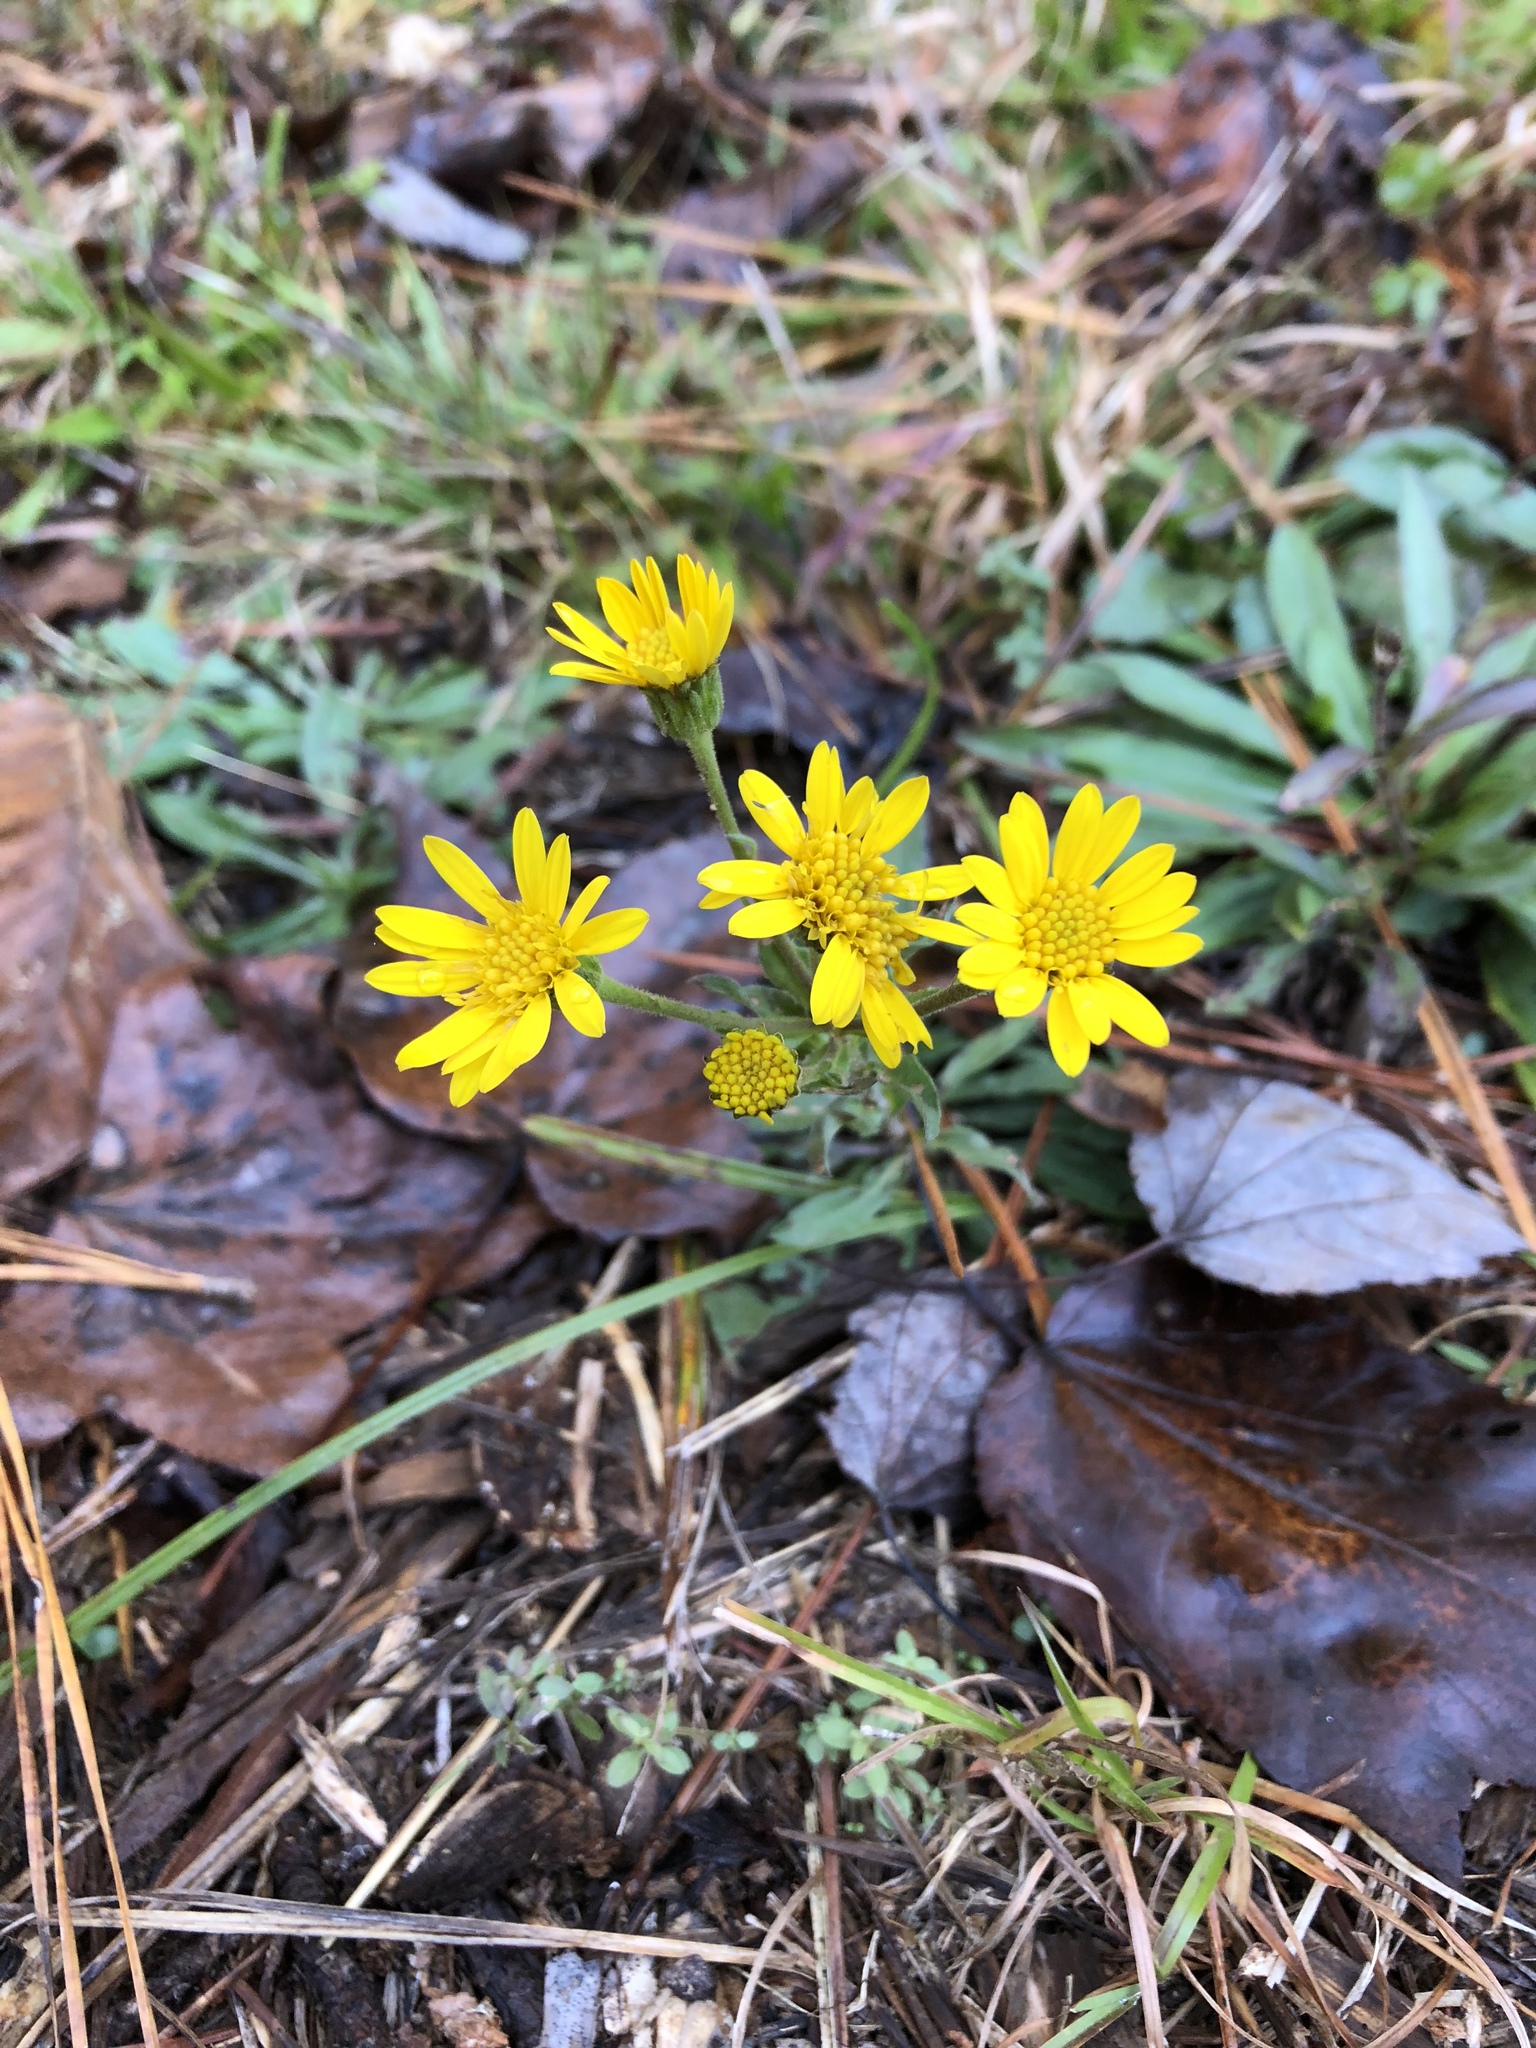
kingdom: Plantae
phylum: Tracheophyta
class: Magnoliopsida
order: Asterales
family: Asteraceae
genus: Chrysopsis
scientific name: Chrysopsis mariana
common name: Maryland golden-aster
